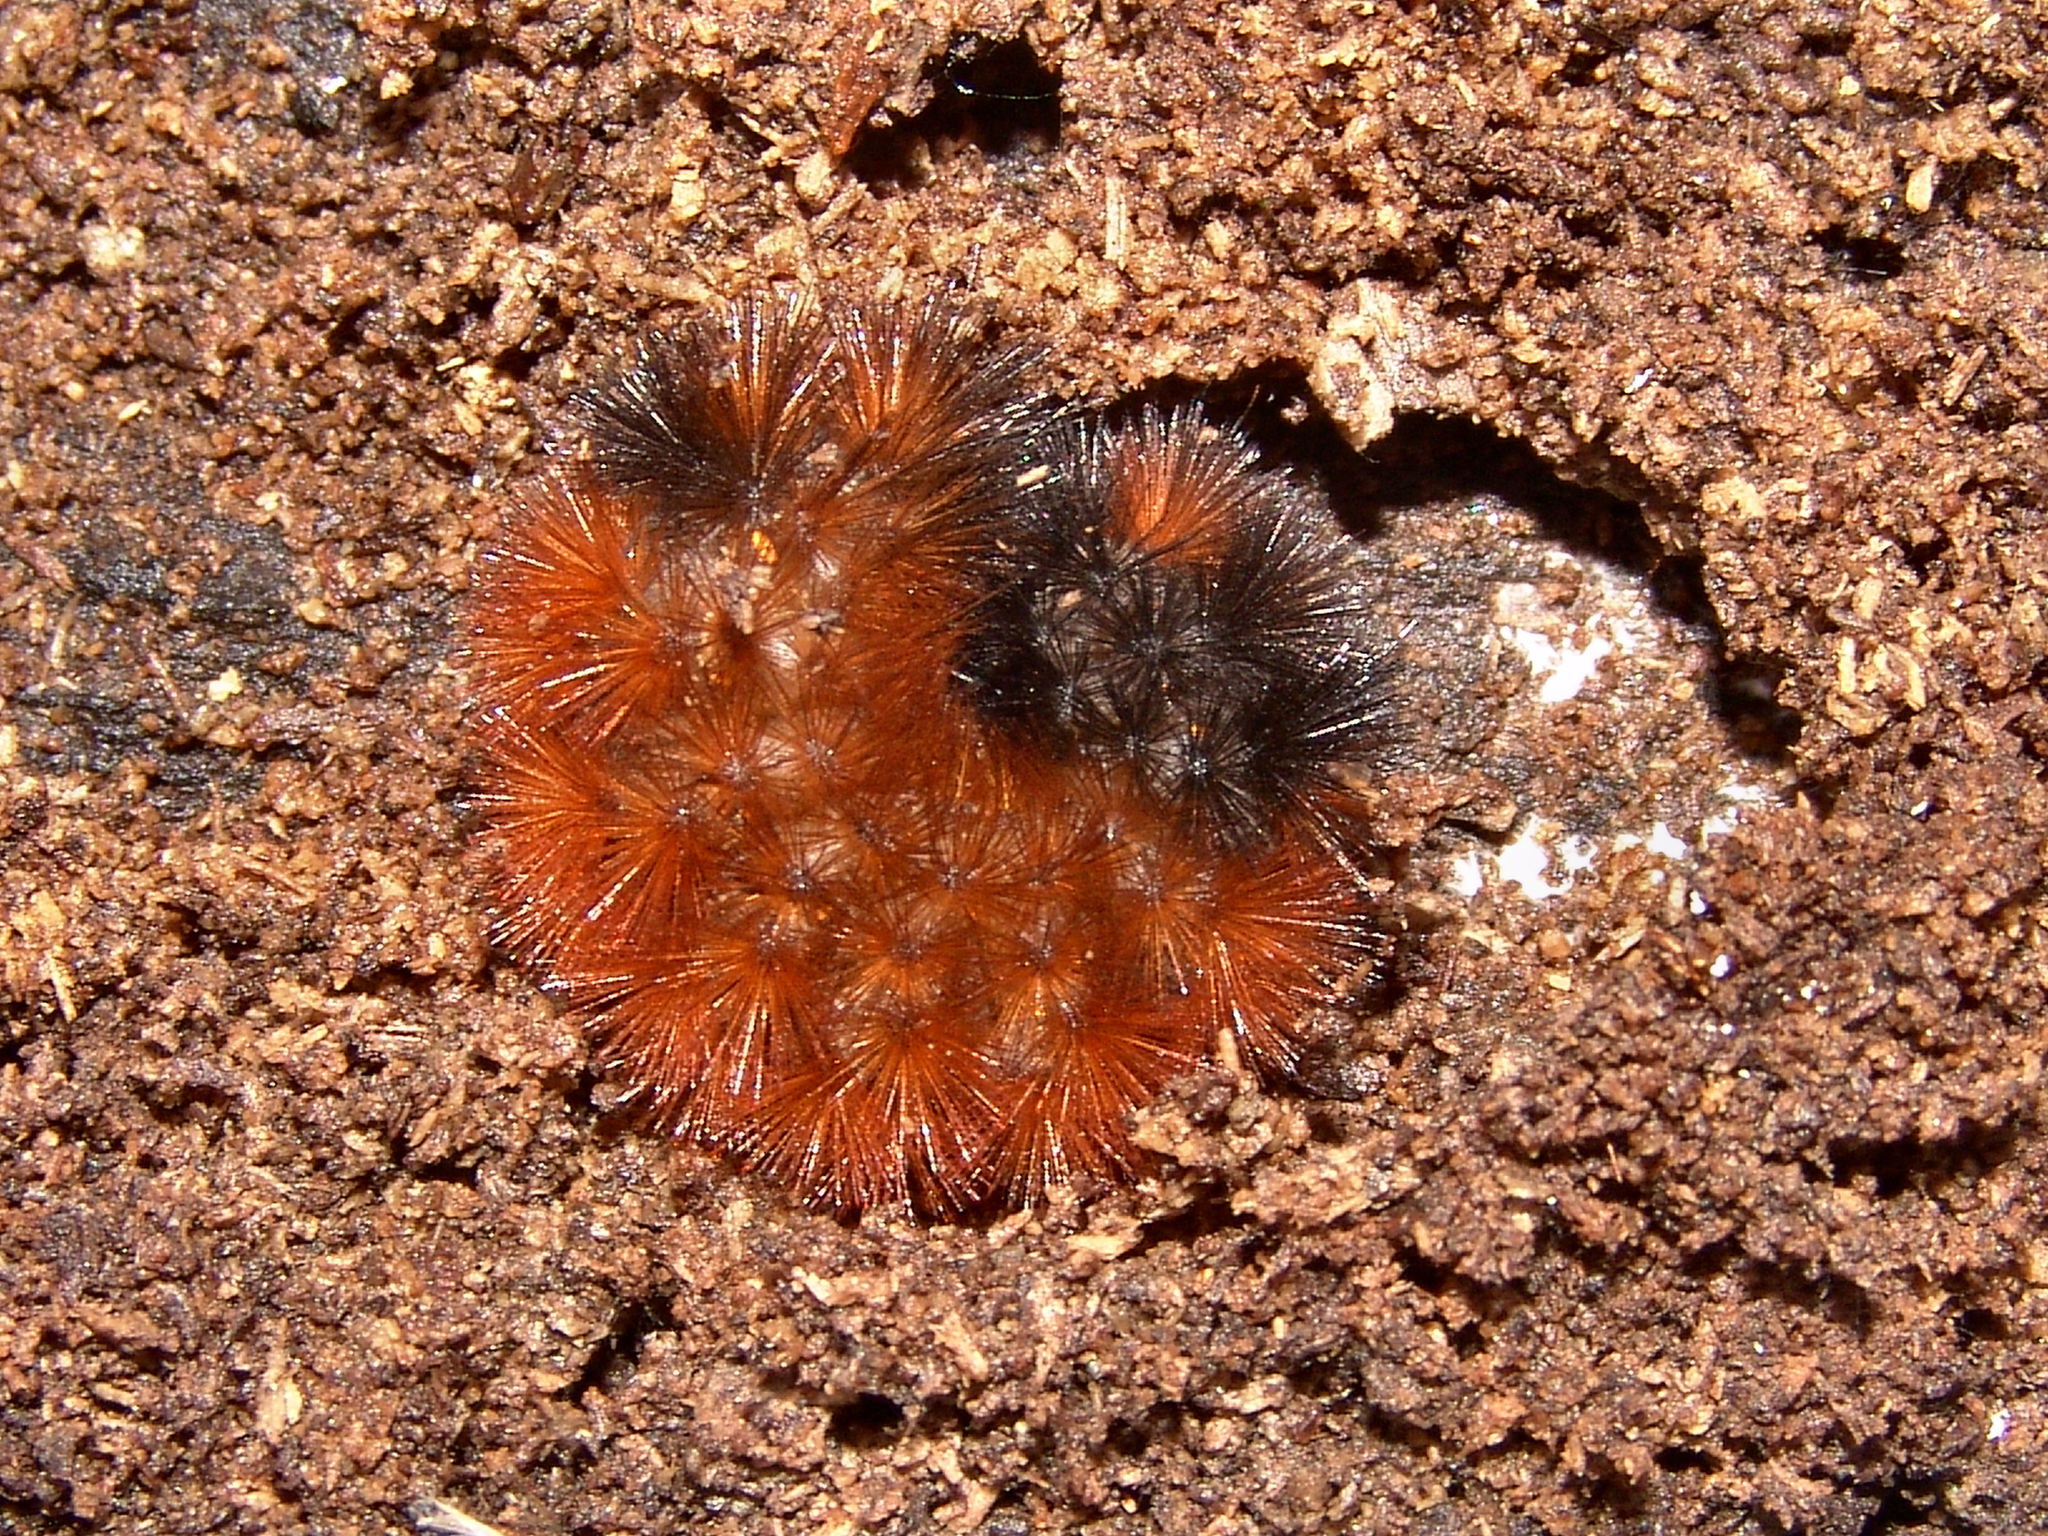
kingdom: Animalia
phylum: Arthropoda
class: Insecta
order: Lepidoptera
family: Erebidae
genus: Pyrrharctia
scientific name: Pyrrharctia isabella
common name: Isabella tiger moth
